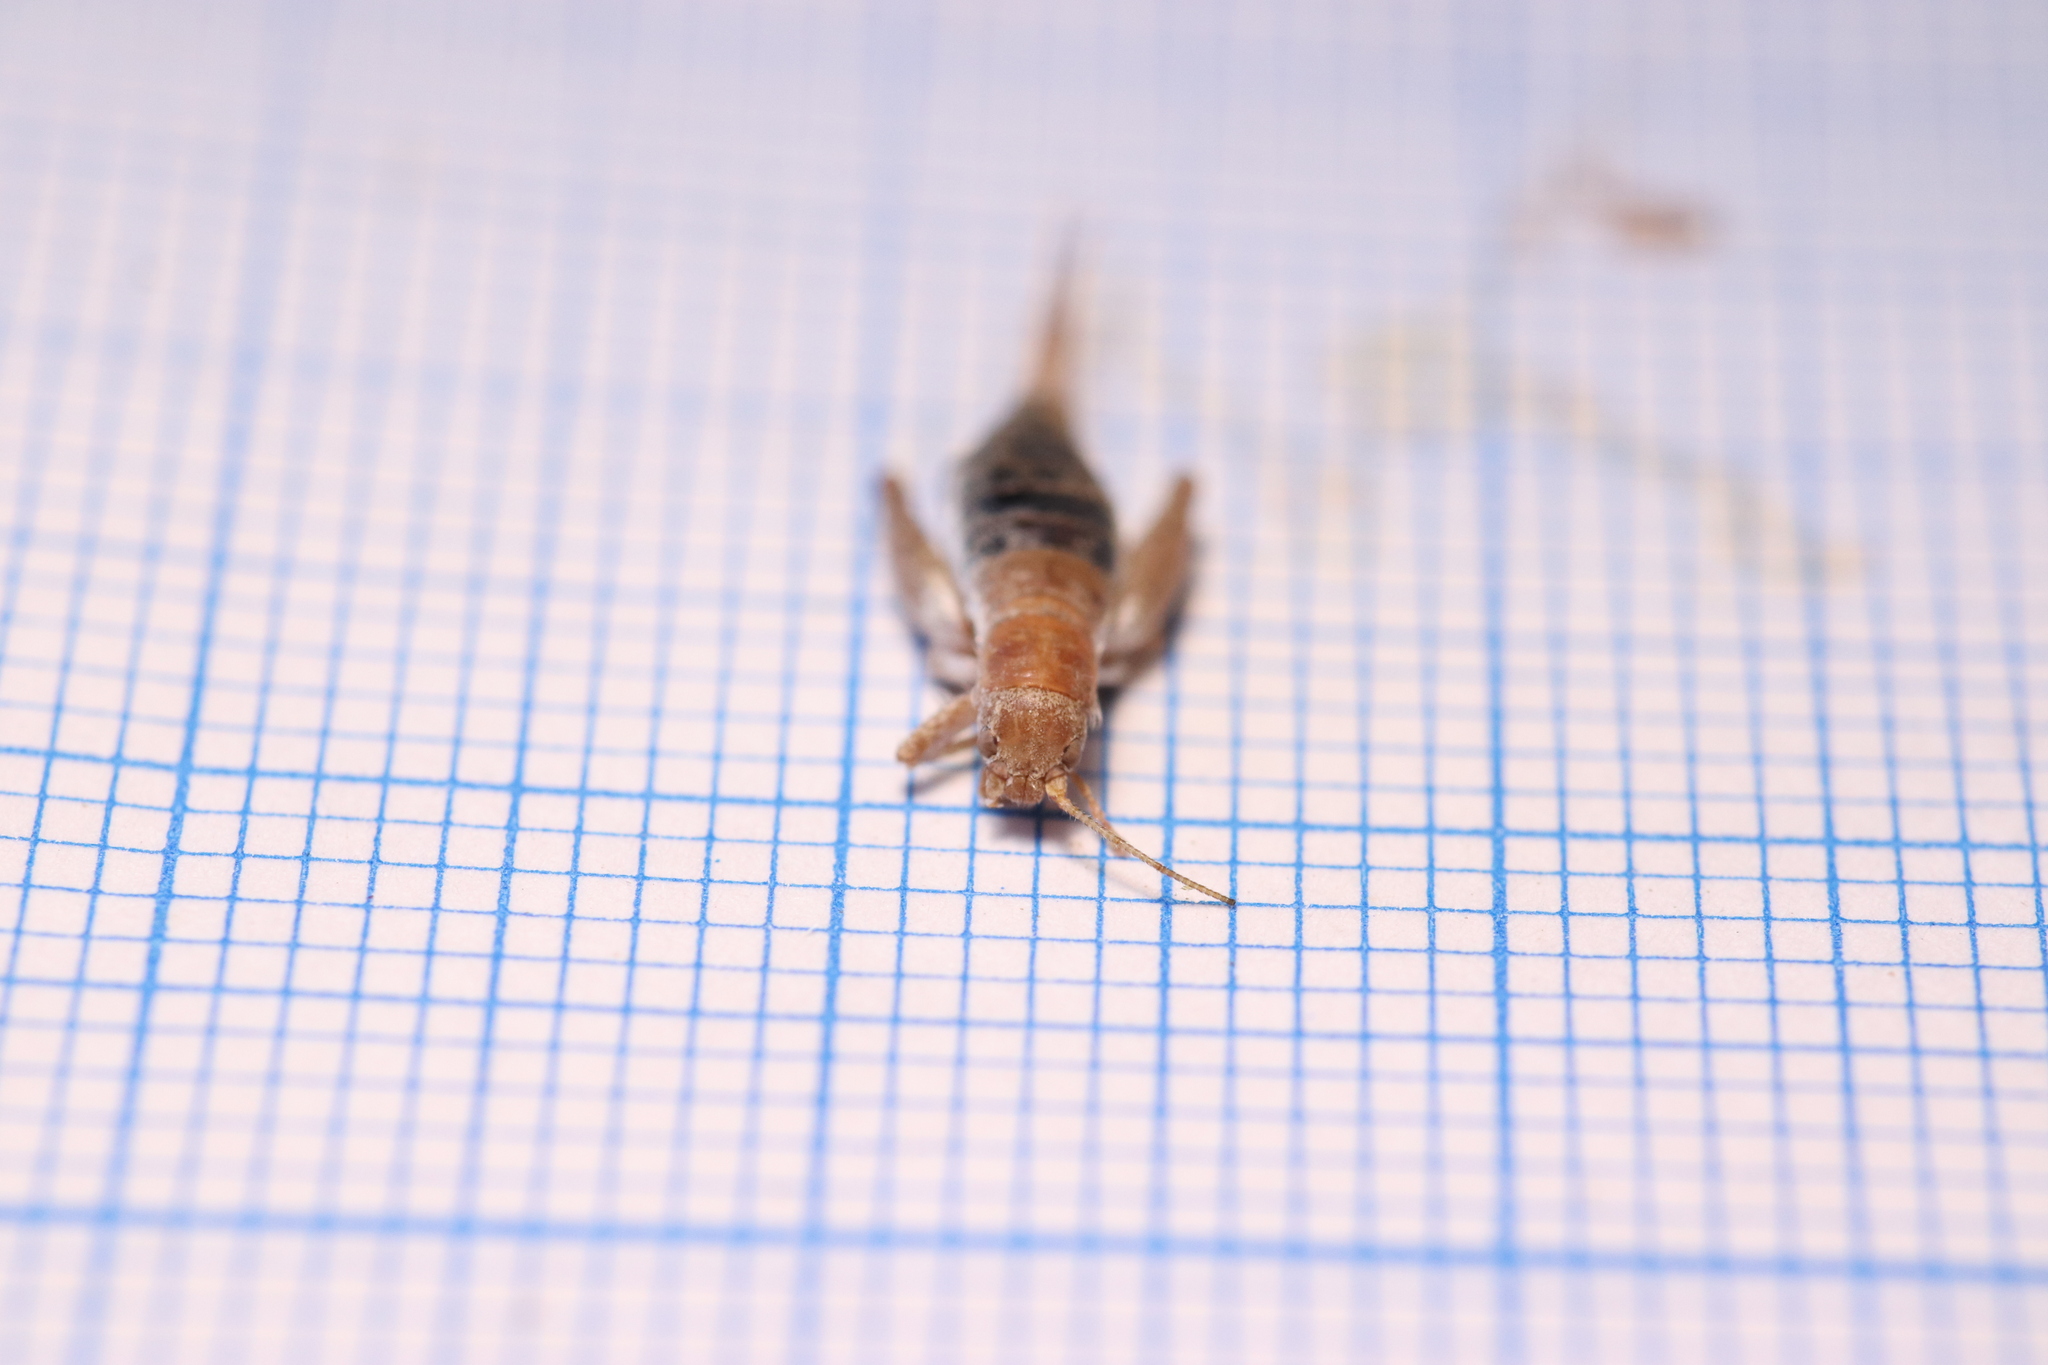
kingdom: Animalia
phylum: Arthropoda
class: Insecta
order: Orthoptera
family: Mogoplistidae
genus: Arachnocephalus
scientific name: Arachnocephalus vestitus
